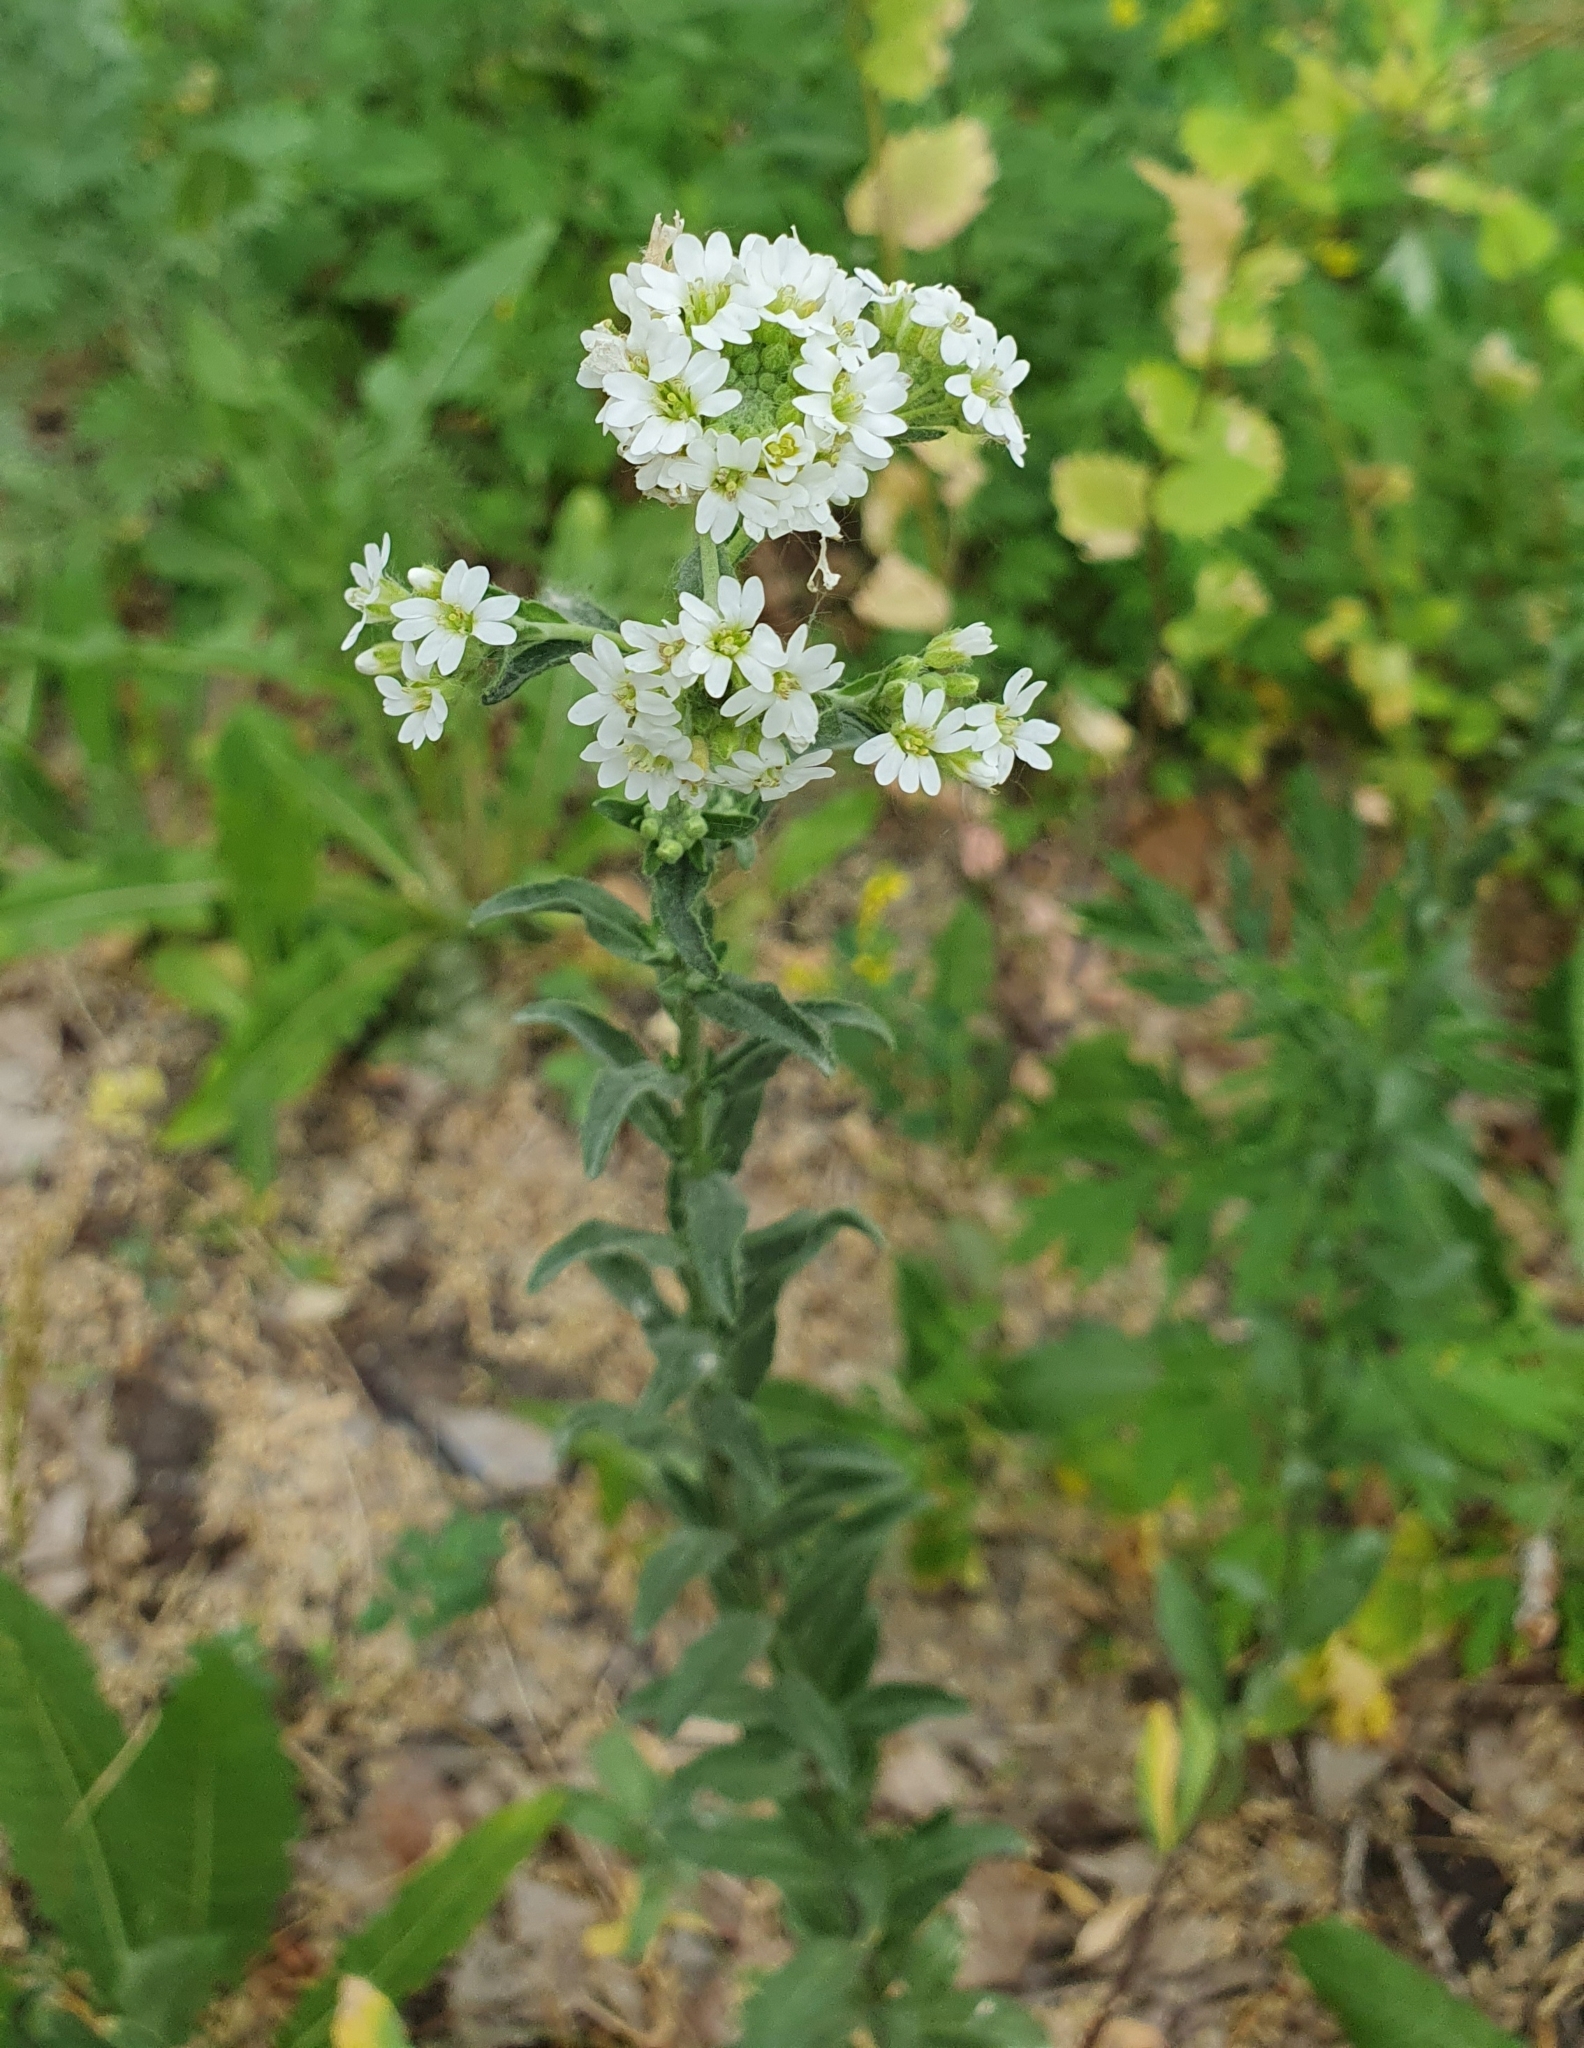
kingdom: Plantae
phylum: Tracheophyta
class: Magnoliopsida
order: Brassicales
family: Brassicaceae
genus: Berteroa
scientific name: Berteroa incana
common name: Hoary alison
